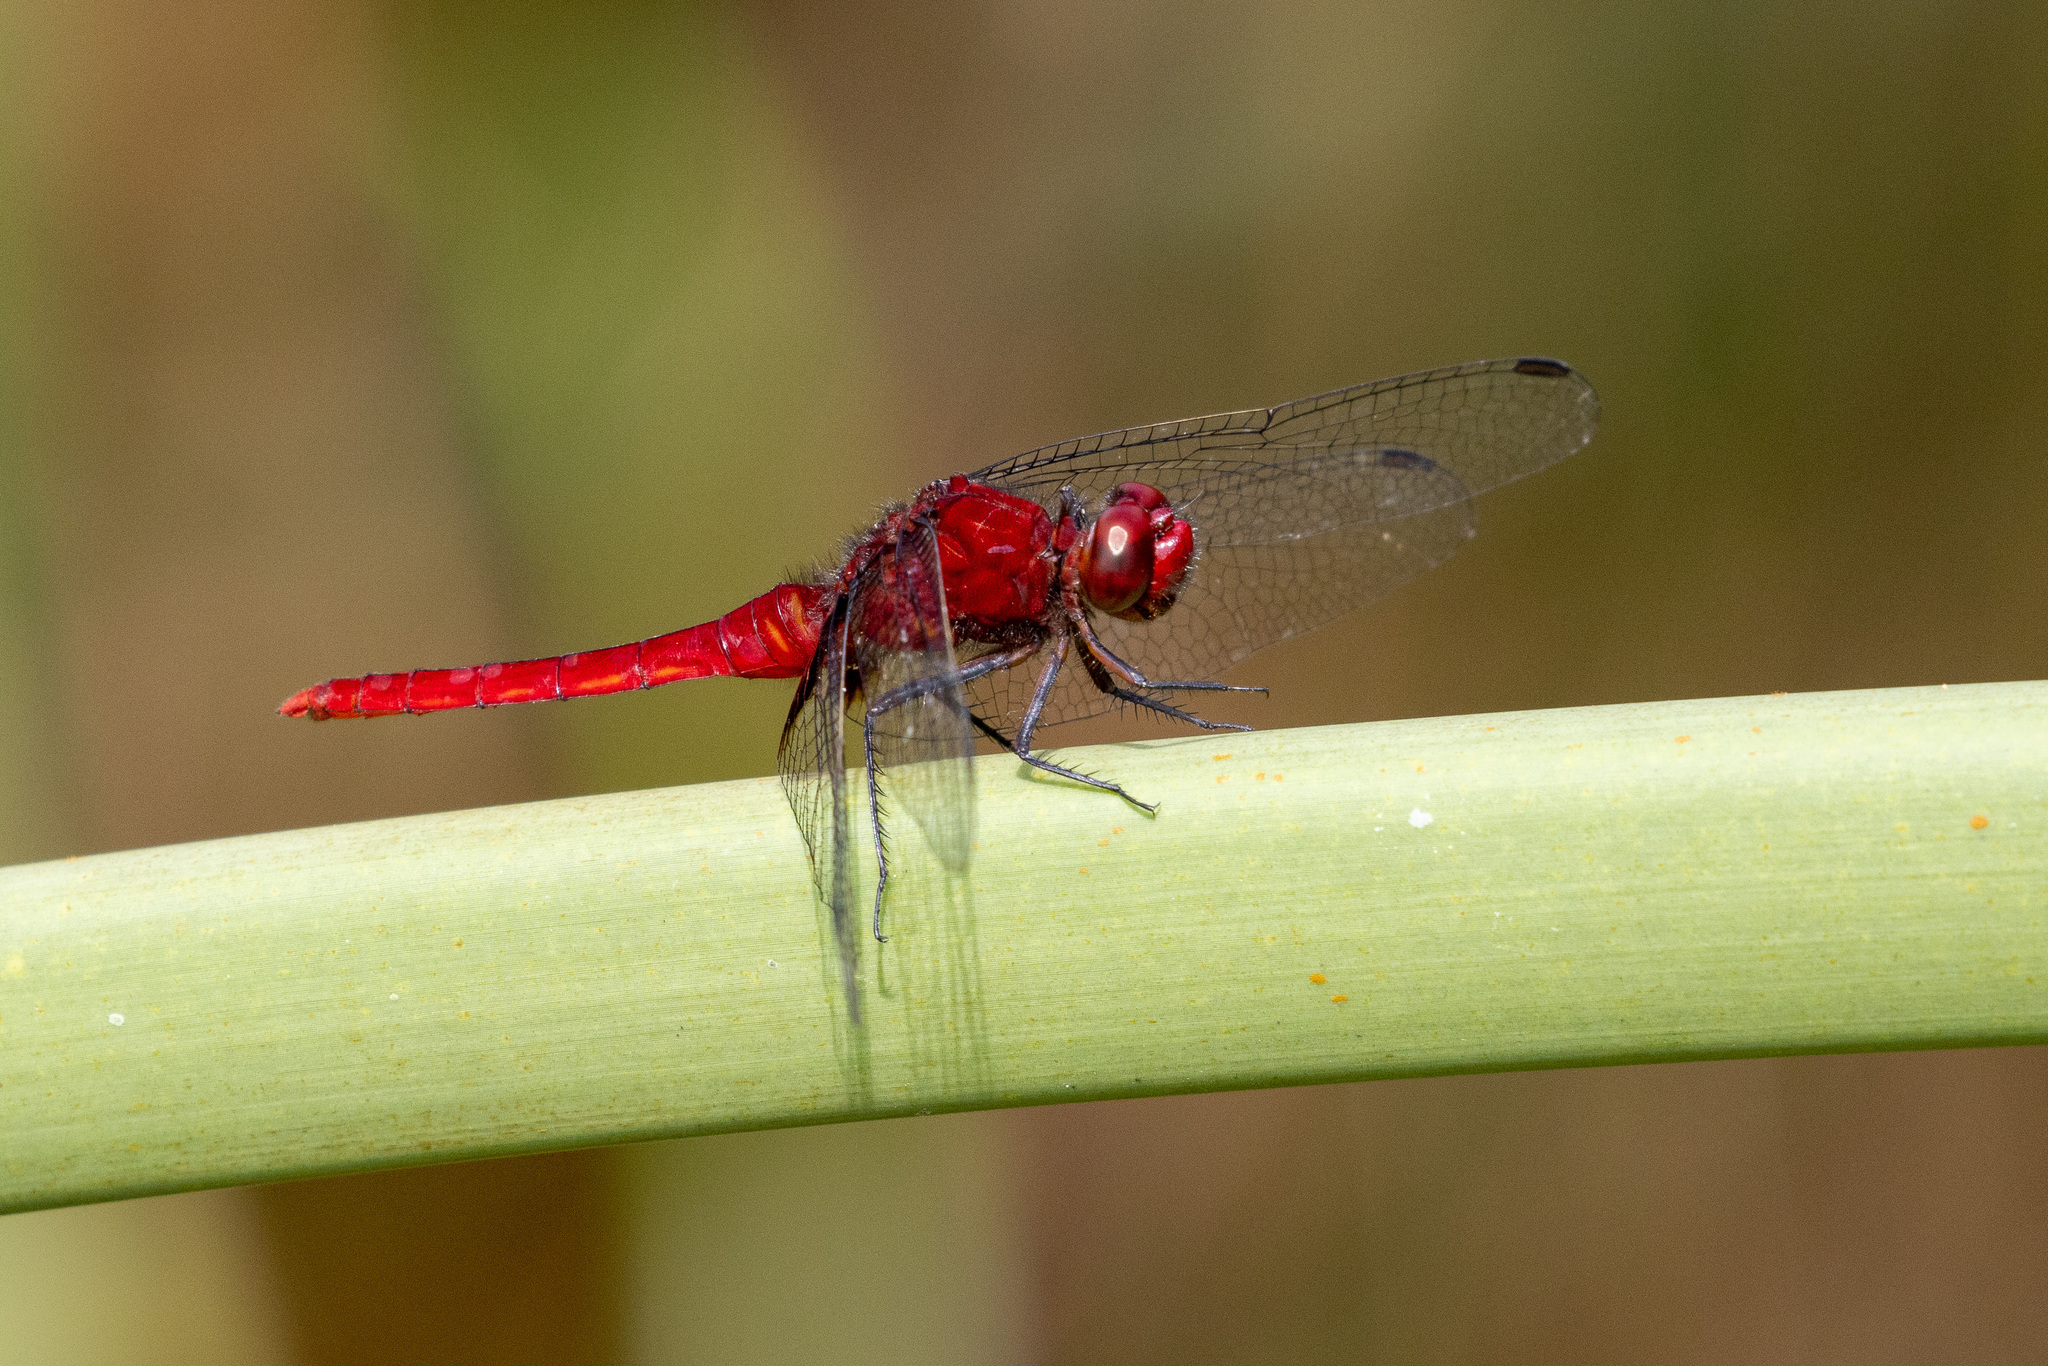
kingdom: Animalia
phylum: Arthropoda
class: Insecta
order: Odonata
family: Libellulidae
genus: Erythemis
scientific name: Erythemis mithroides
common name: Claret pondhawk
